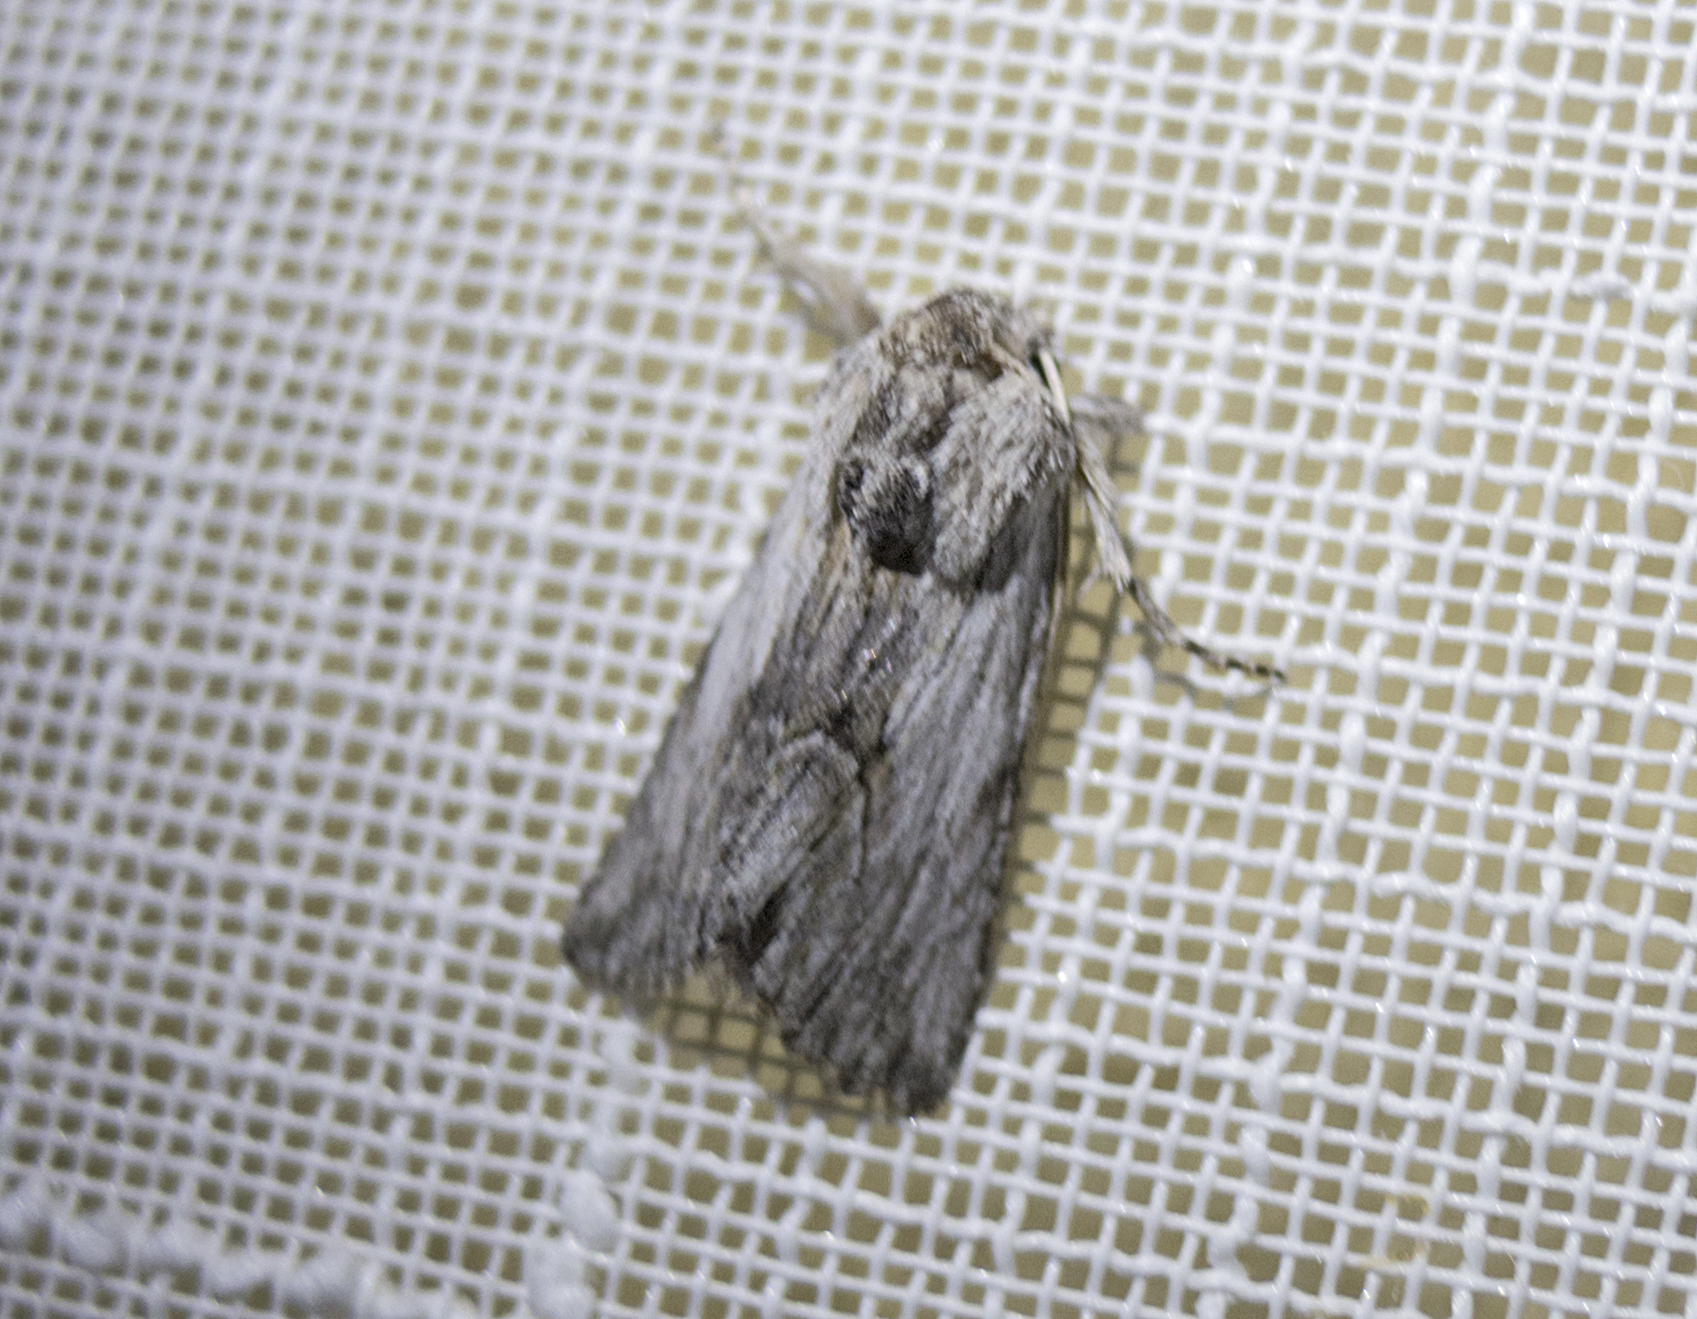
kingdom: Animalia
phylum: Arthropoda
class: Insecta
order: Lepidoptera
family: Noctuidae
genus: Calophasia
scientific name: Calophasia platyptera
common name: Antirrhinum brocade
